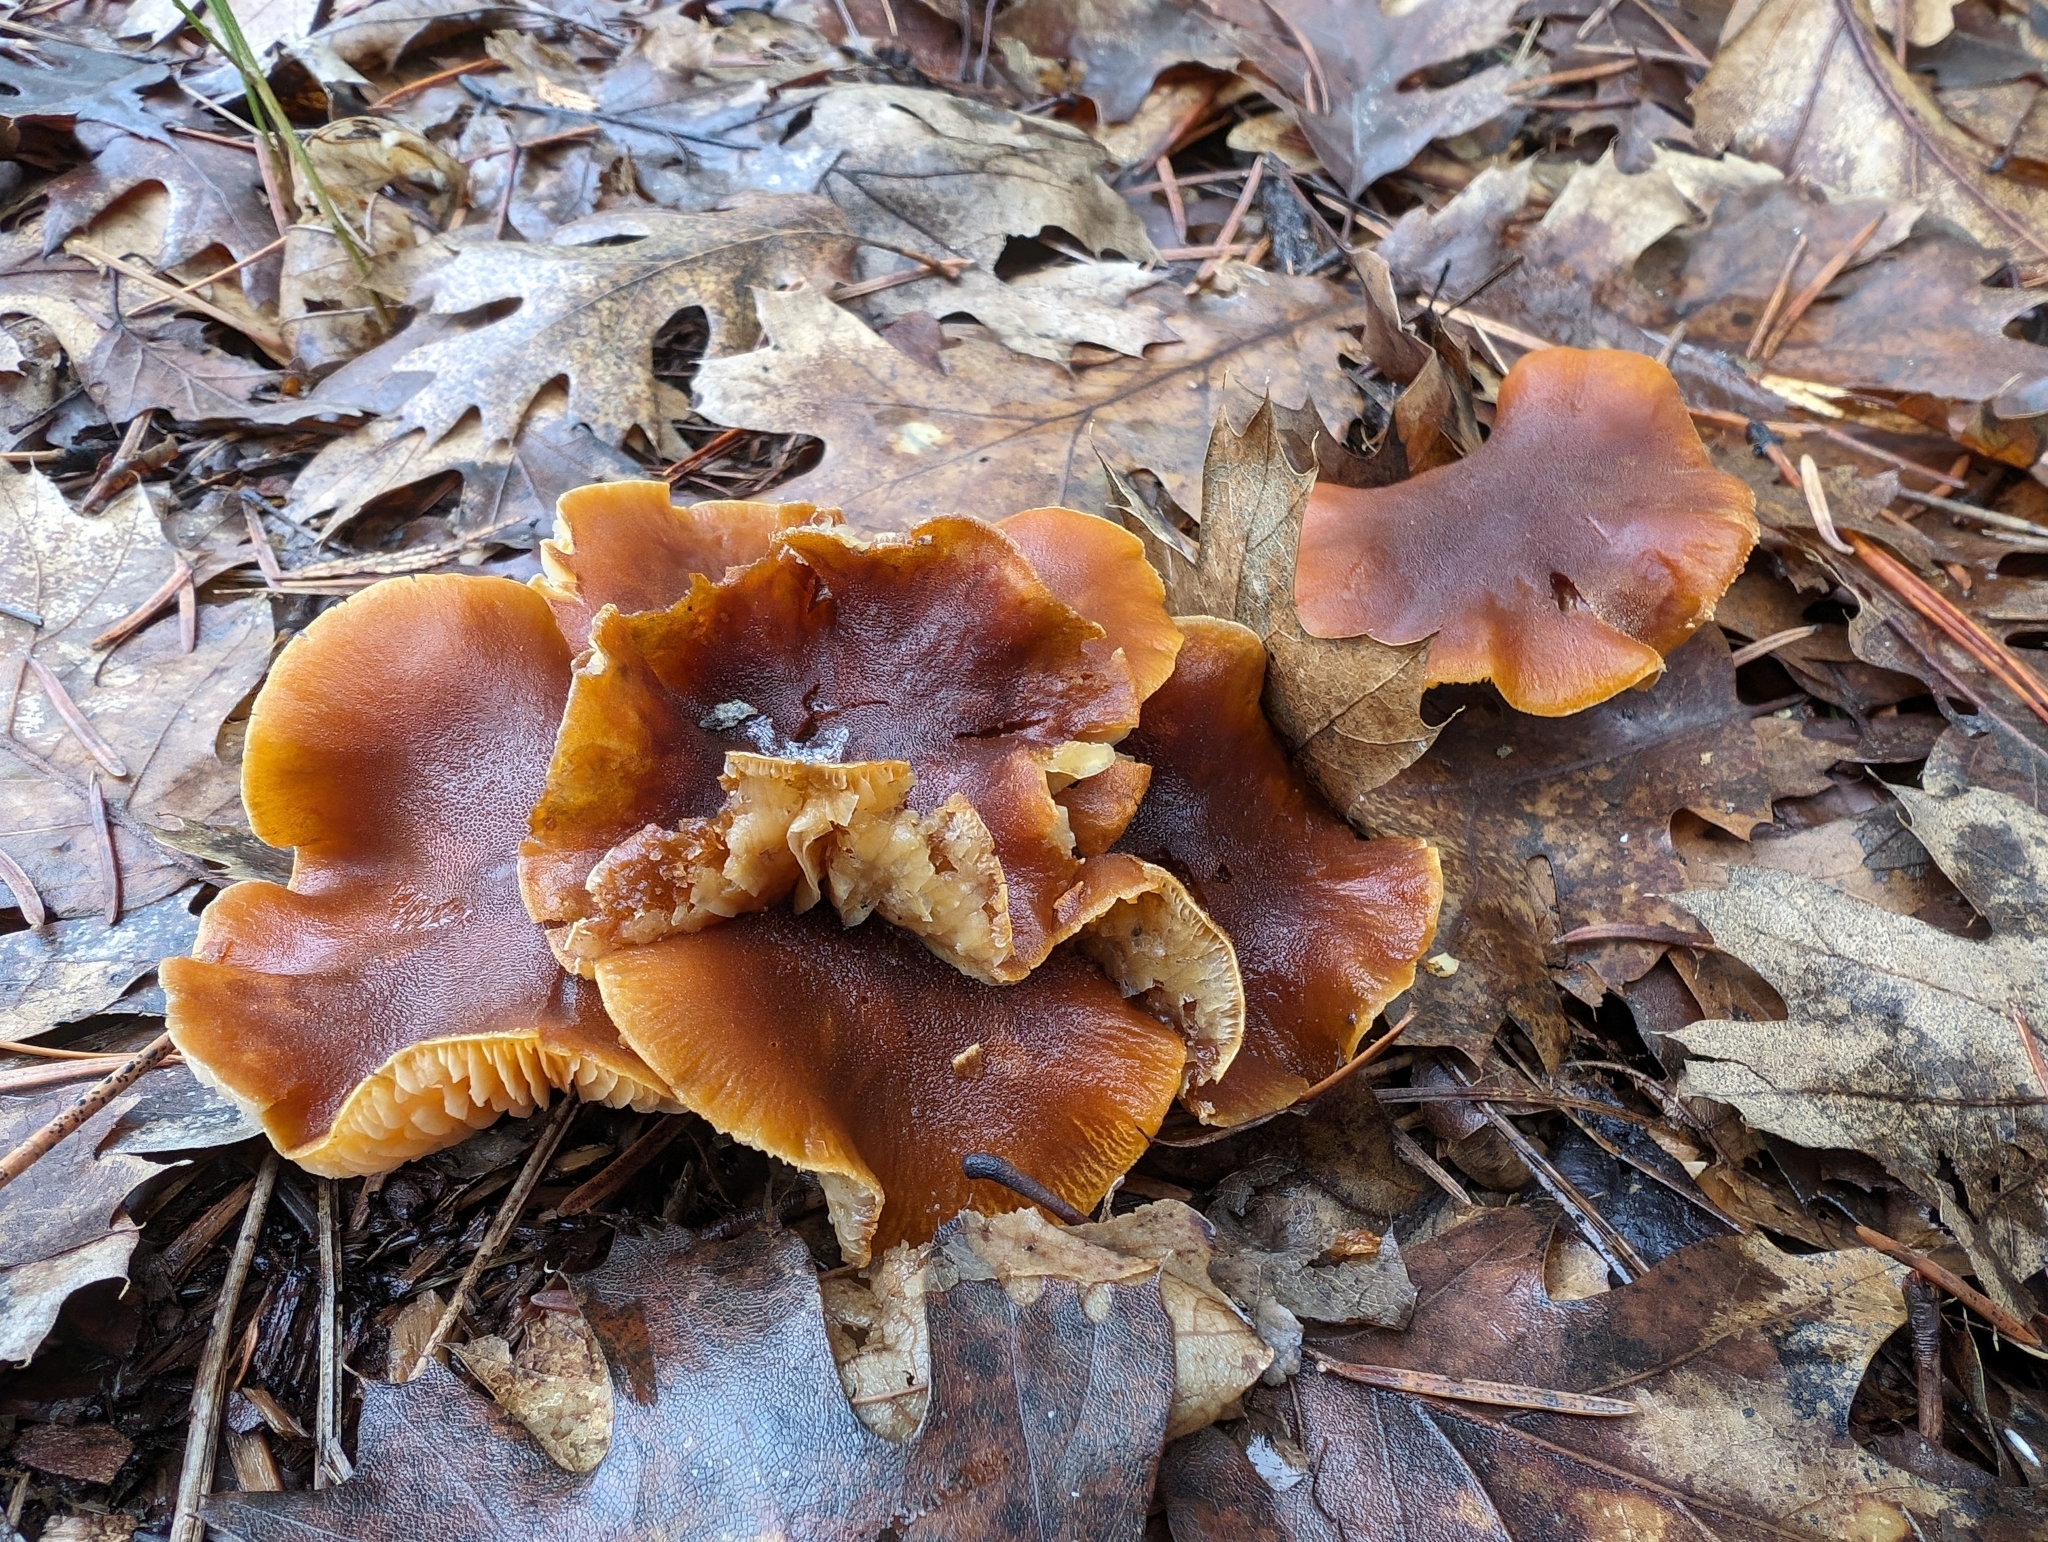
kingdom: Fungi
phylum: Basidiomycota
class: Agaricomycetes
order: Agaricales
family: Tricholomataceae
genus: Cystoderma
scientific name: Cystoderma amianthinum
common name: Earthy powdercap
